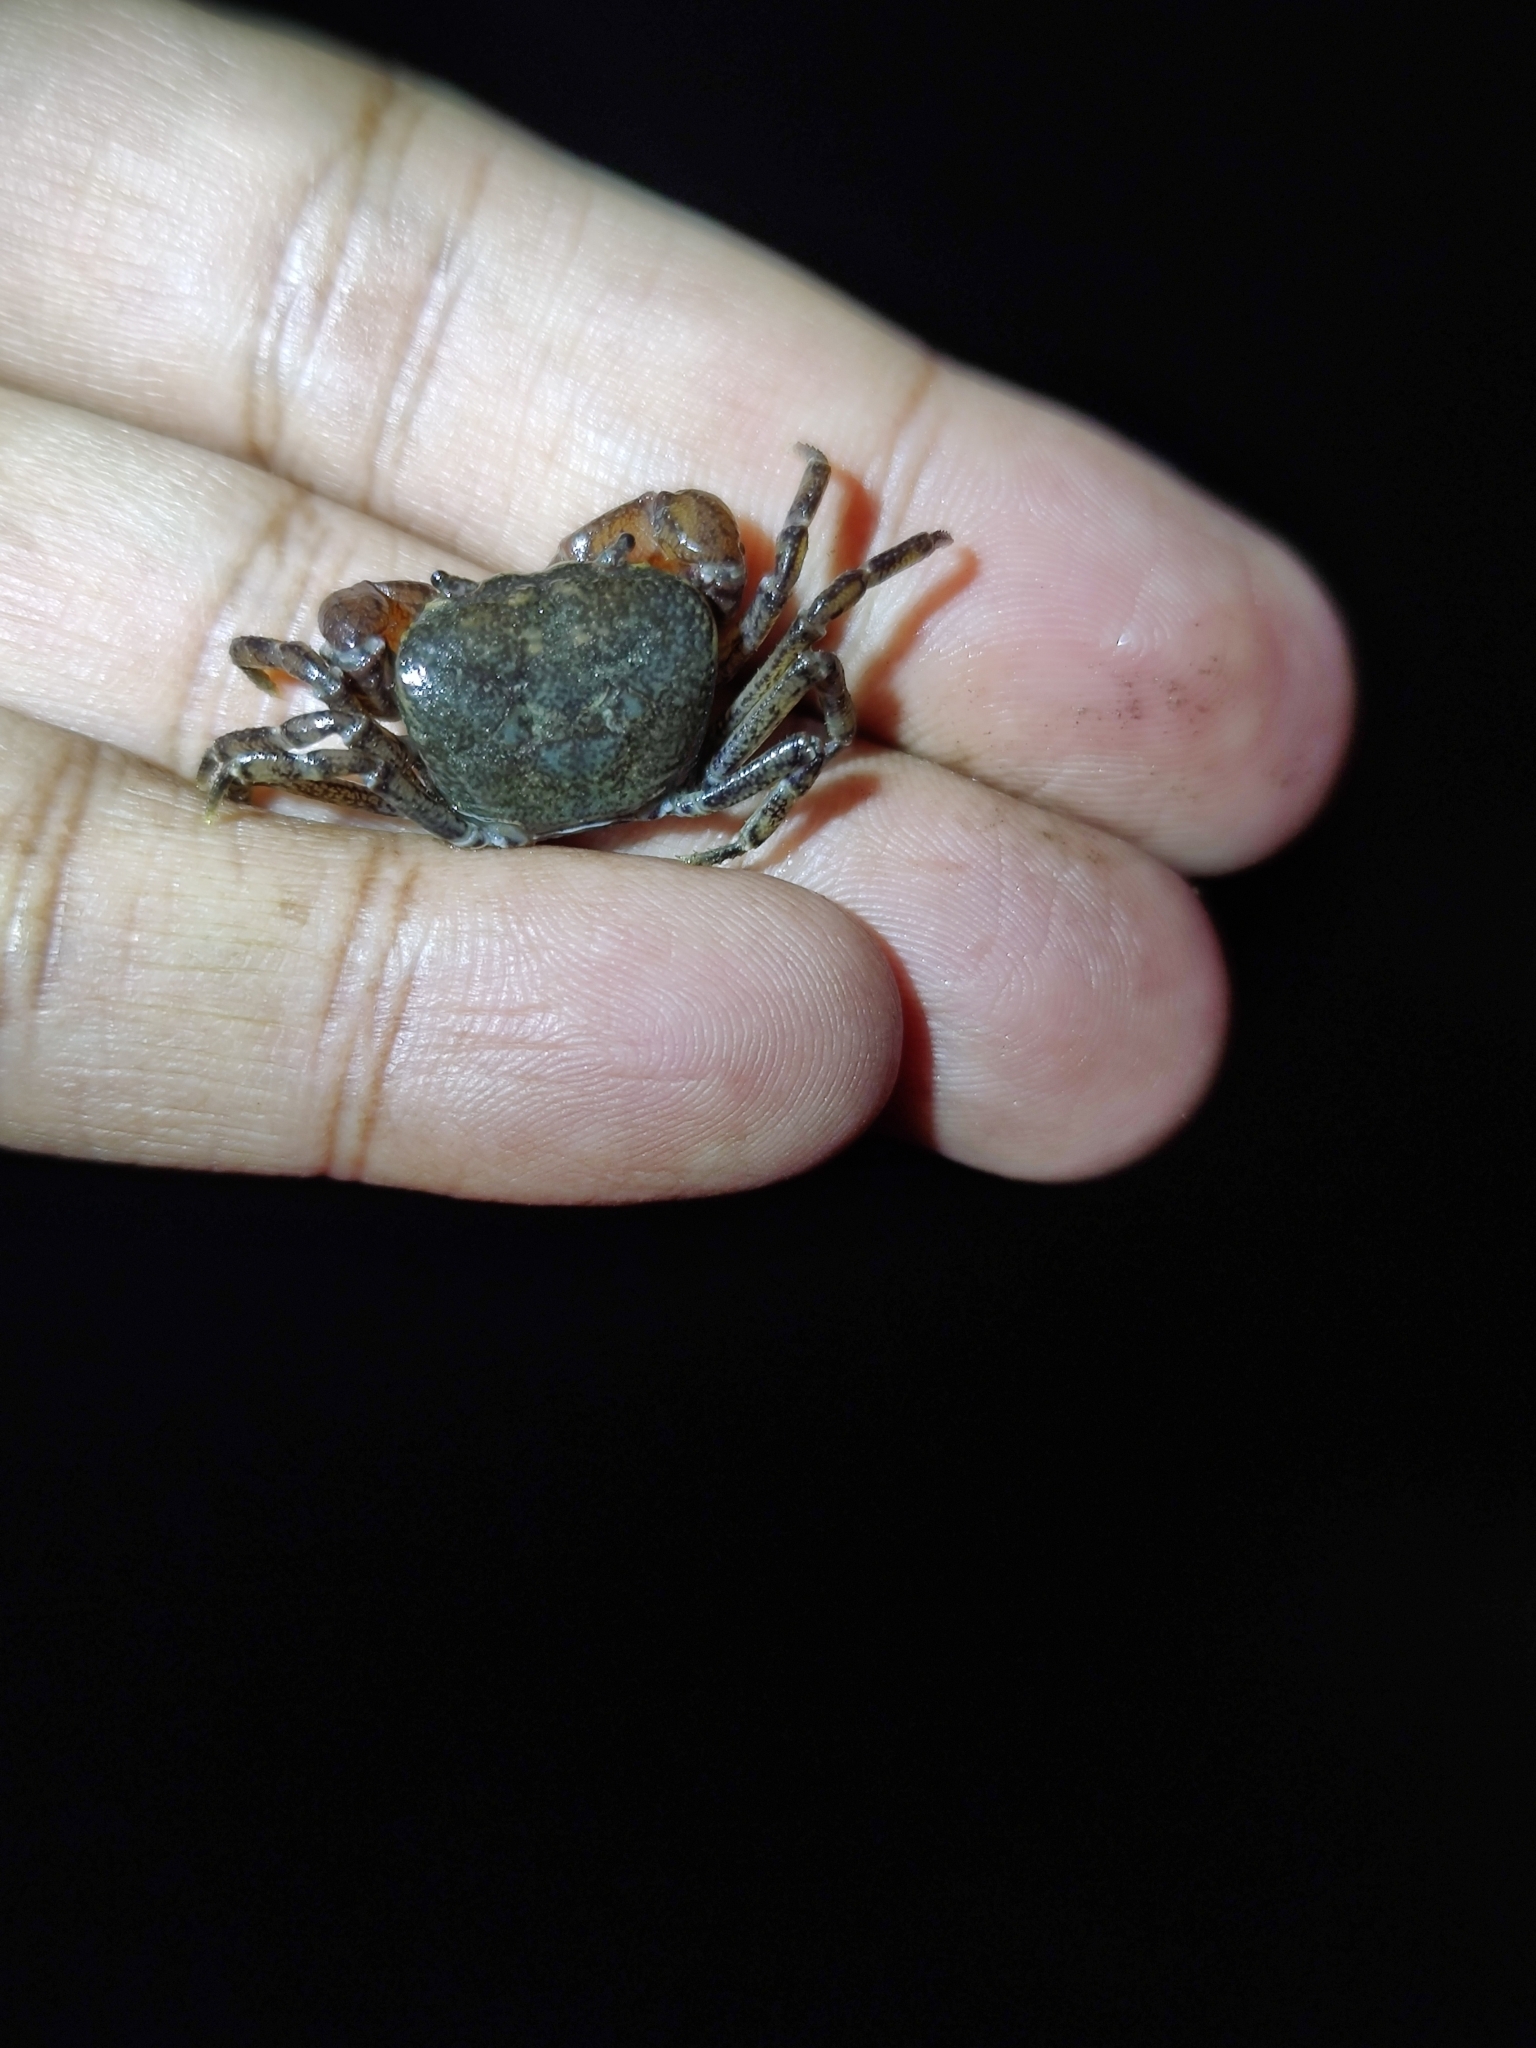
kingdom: Animalia
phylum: Arthropoda
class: Malacostraca
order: Decapoda
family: Potamidae
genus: Gurumon
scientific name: Gurumon gurumayum
